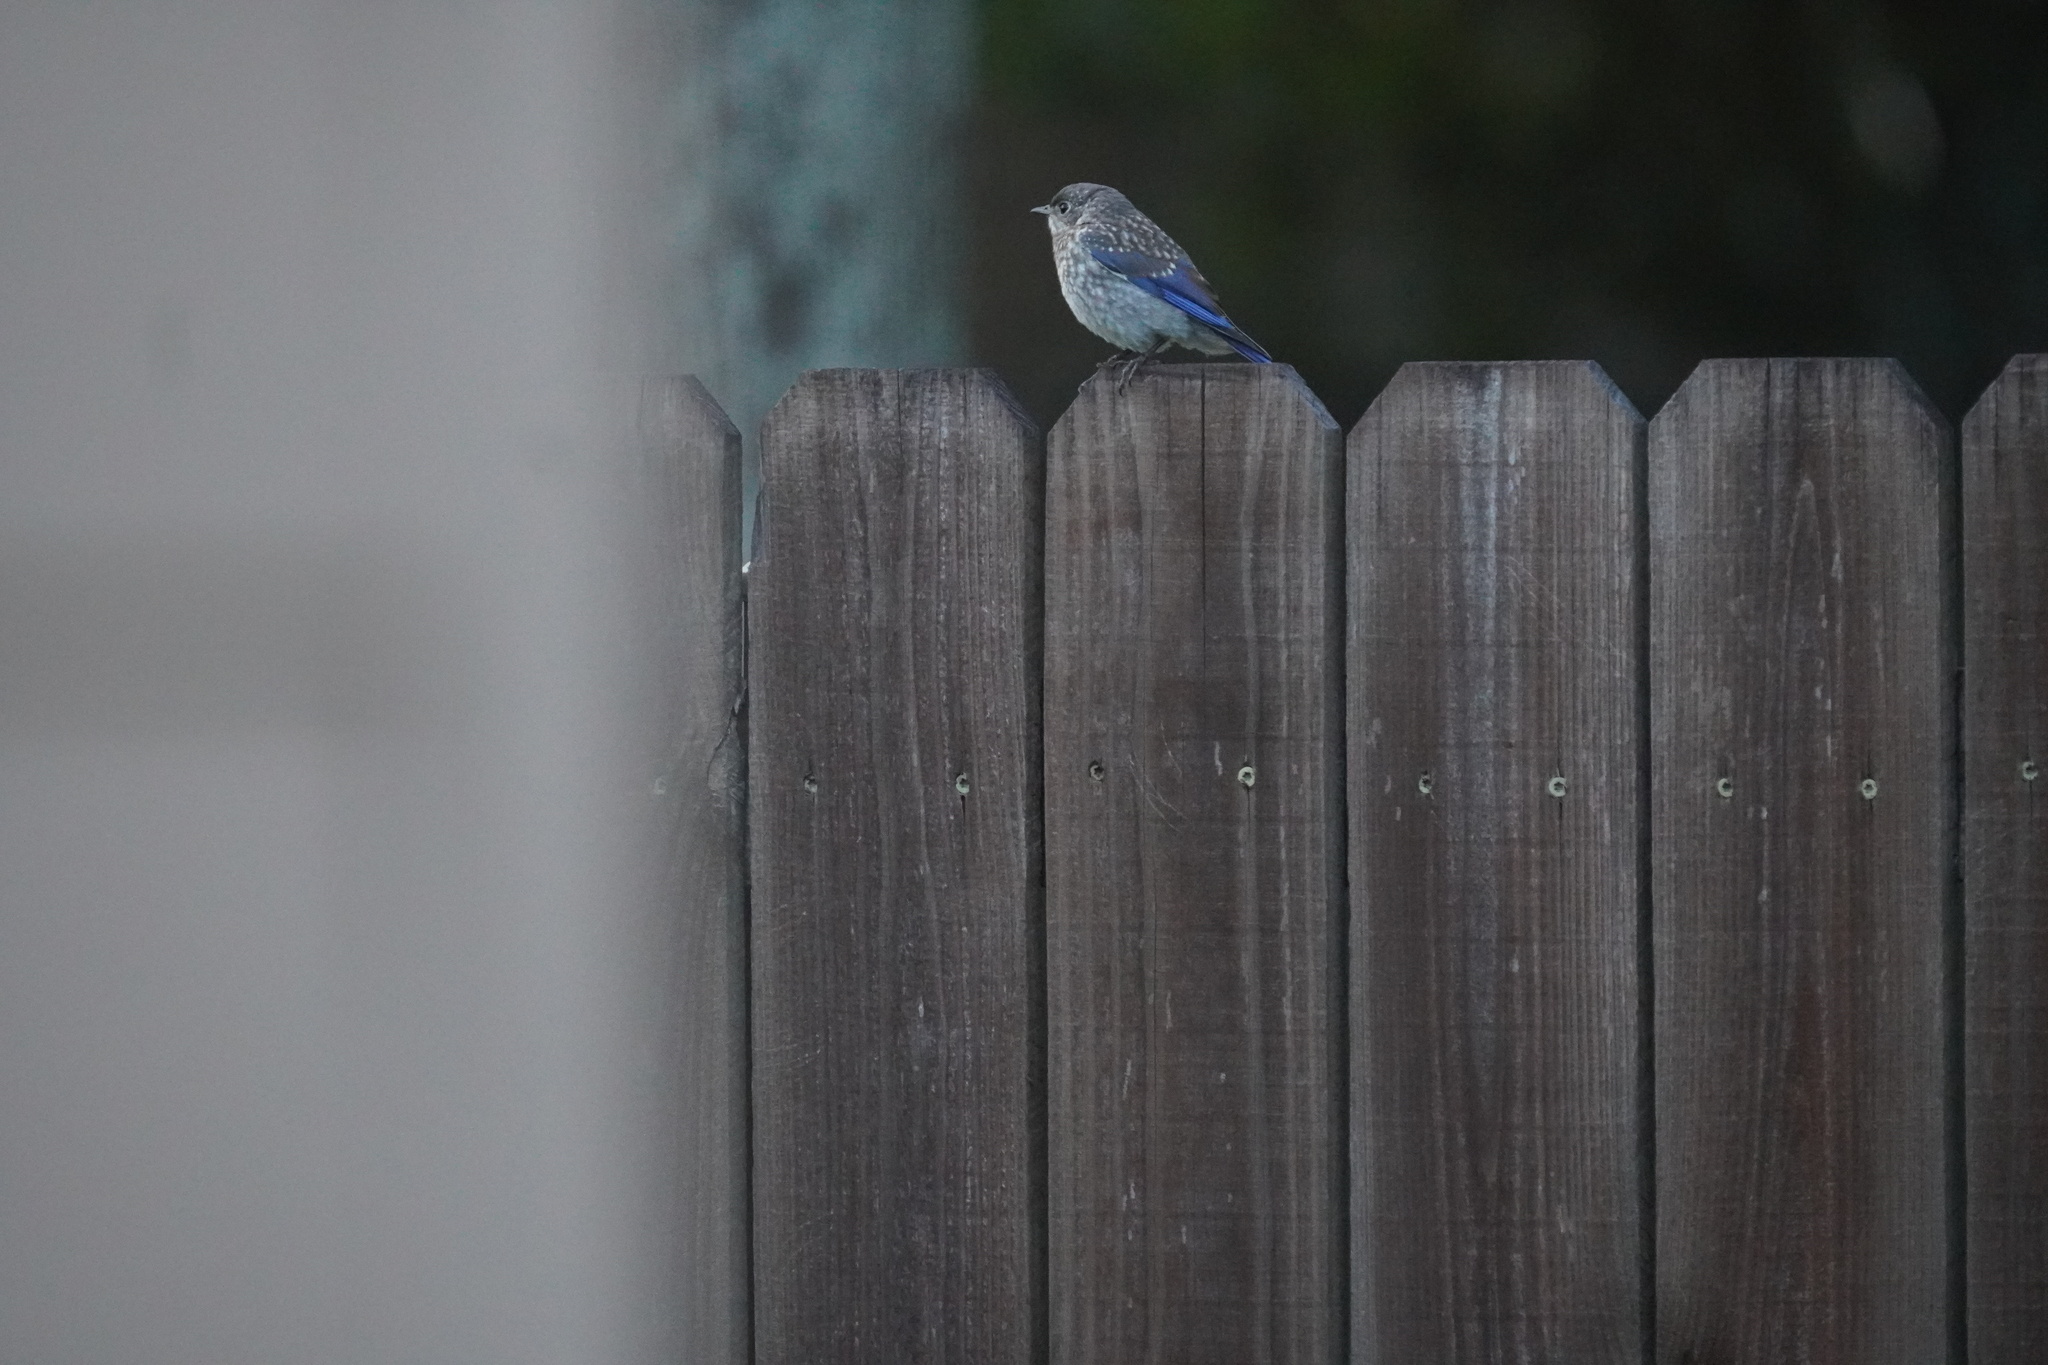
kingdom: Animalia
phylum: Chordata
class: Aves
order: Passeriformes
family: Turdidae
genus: Sialia
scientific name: Sialia sialis
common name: Eastern bluebird
